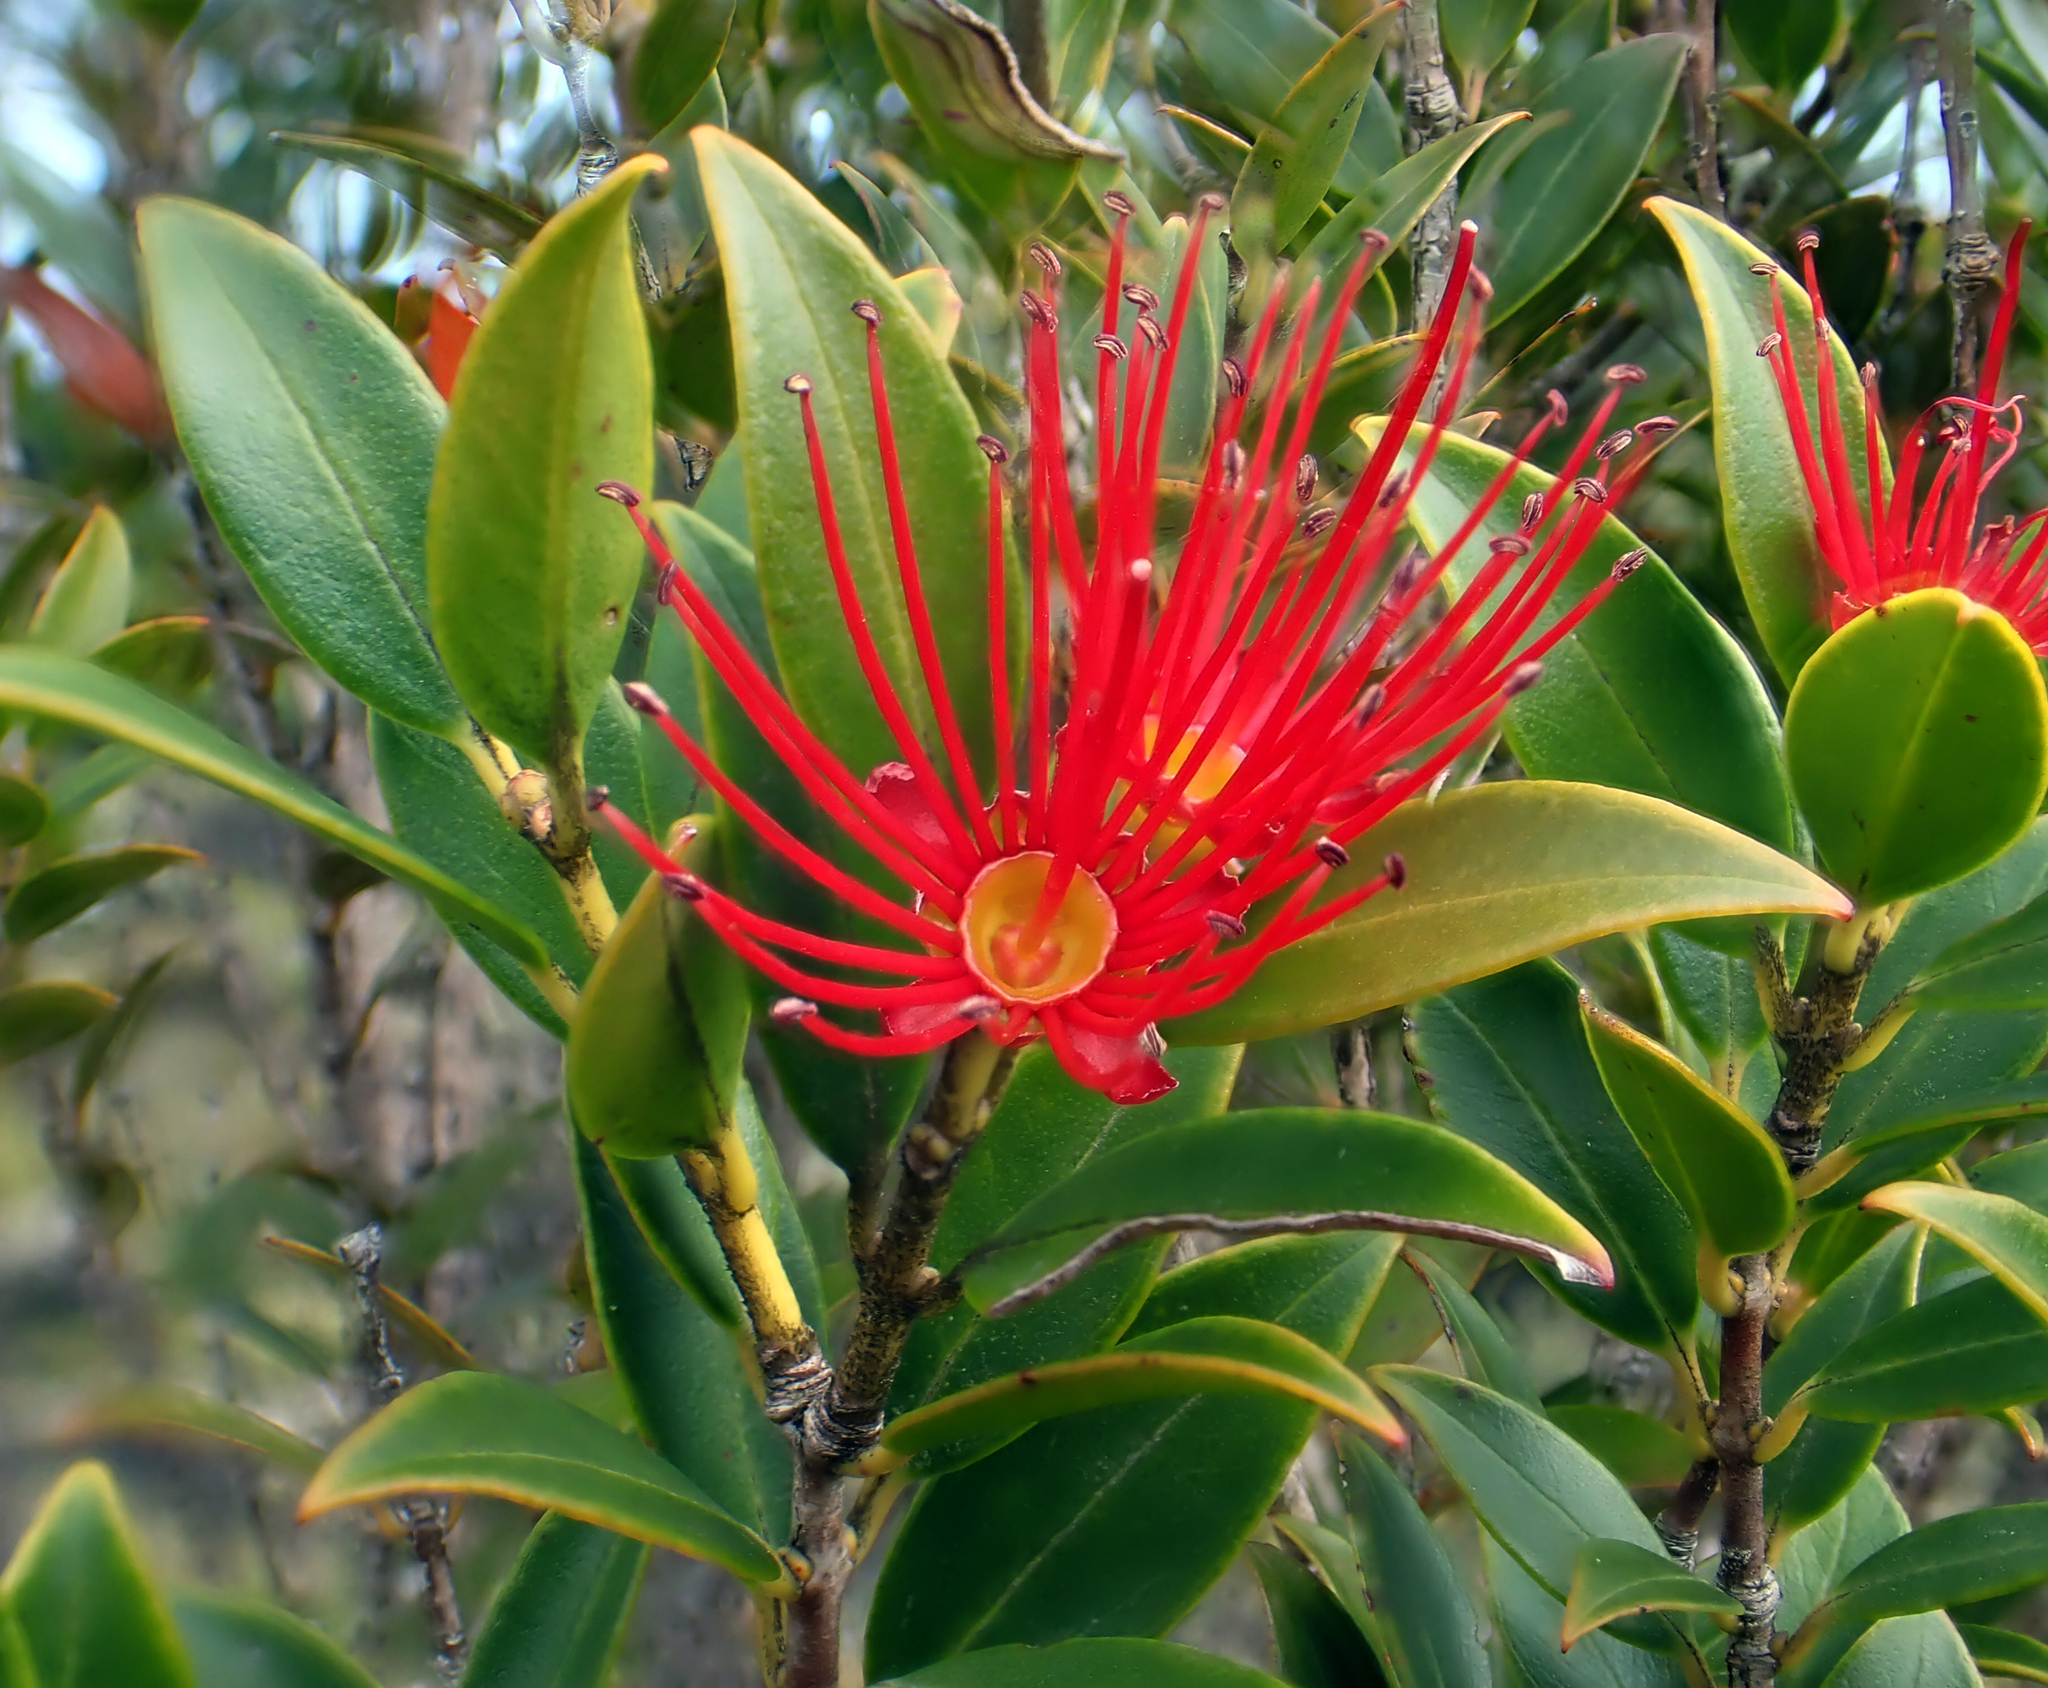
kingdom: Plantae
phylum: Tracheophyta
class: Magnoliopsida
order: Myrtales
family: Myrtaceae
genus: Metrosideros
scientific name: Metrosideros umbellata
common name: Southern rata
